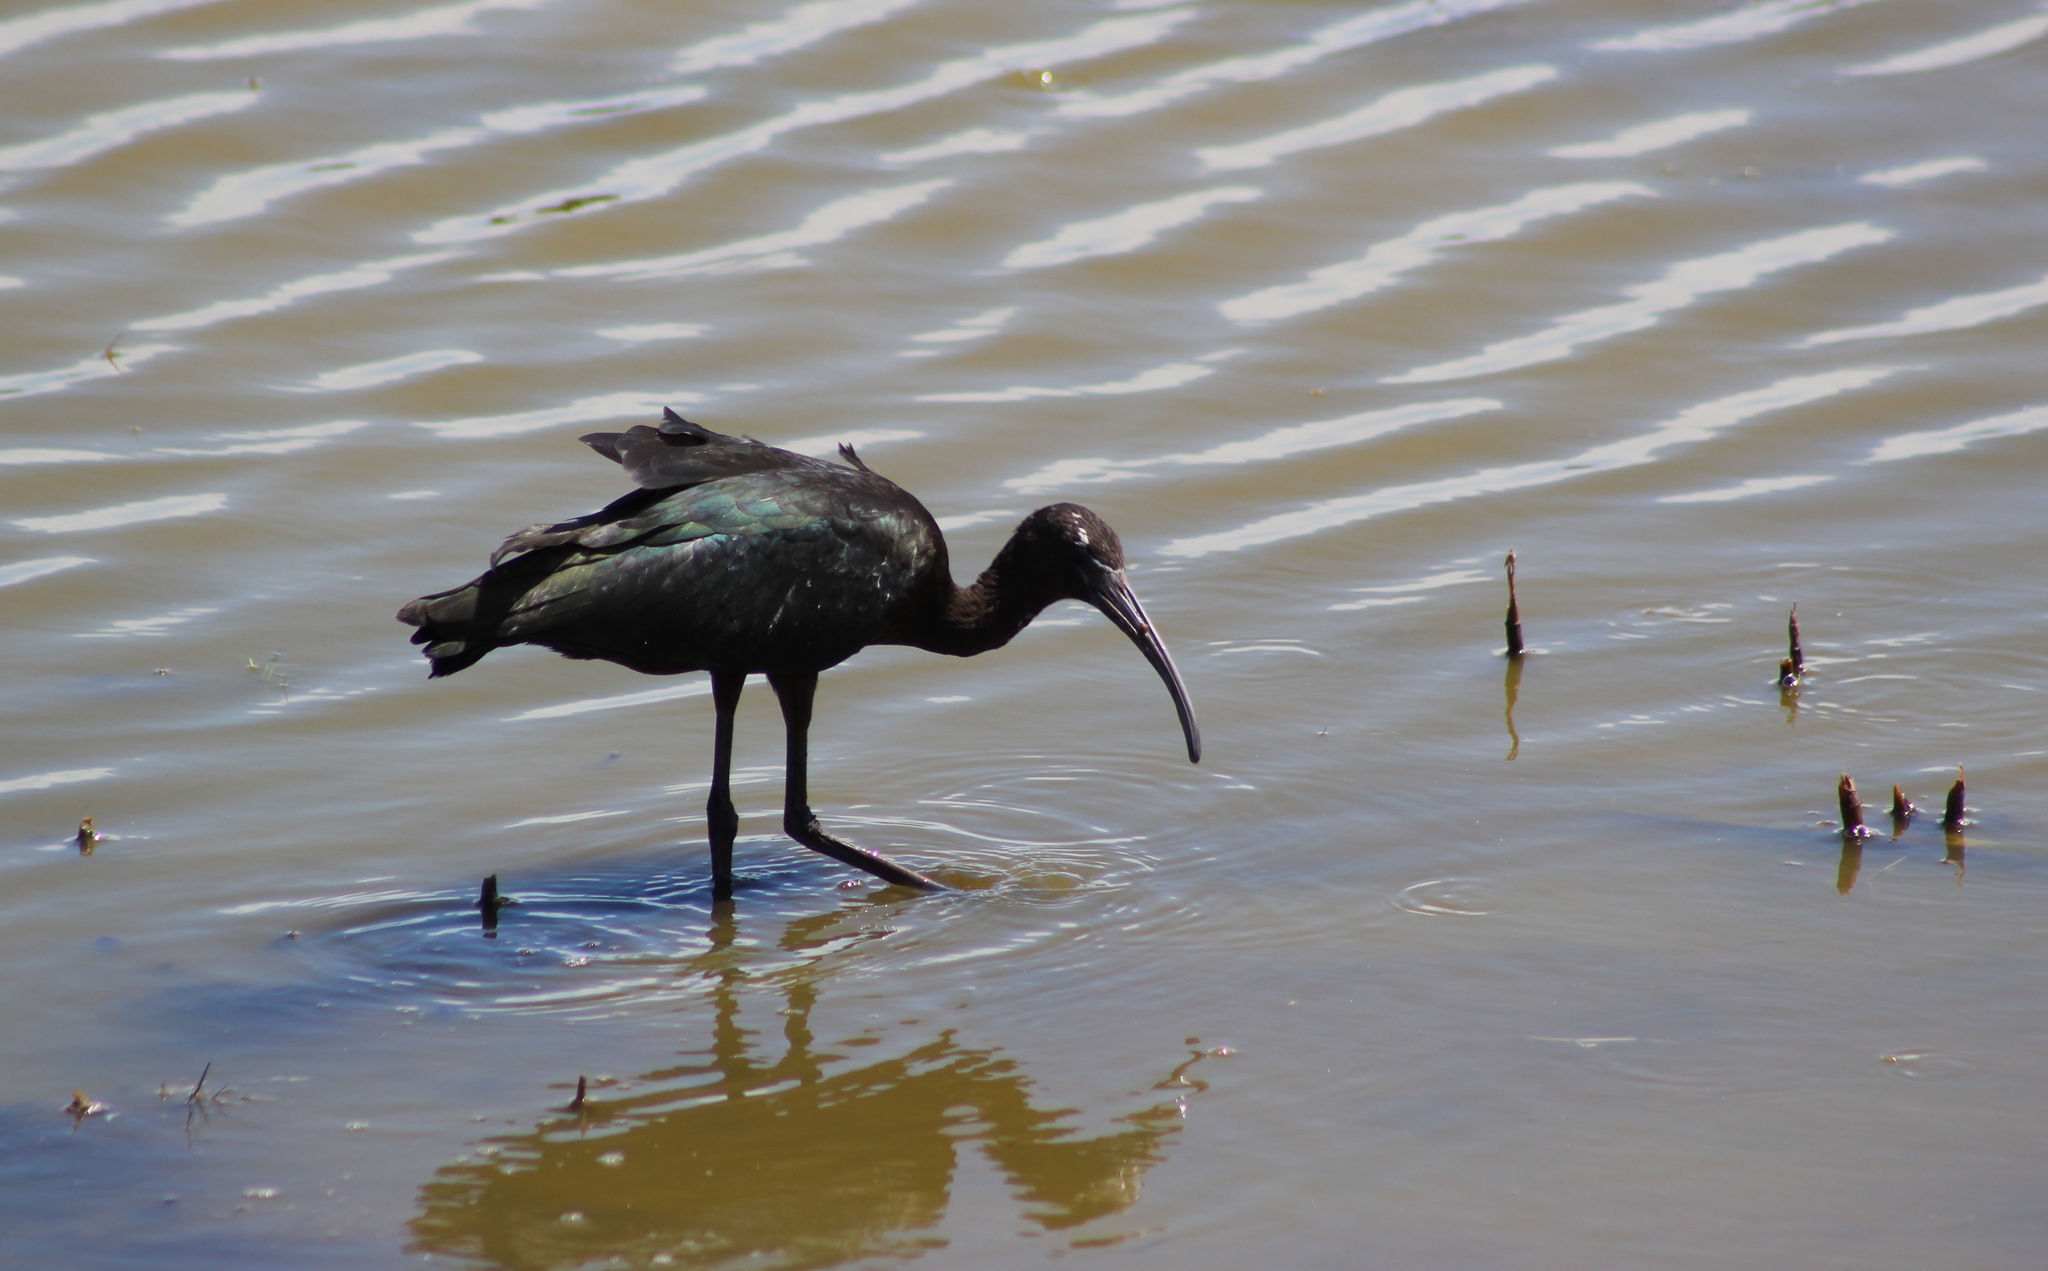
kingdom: Animalia
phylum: Chordata
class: Aves
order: Pelecaniformes
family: Threskiornithidae
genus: Plegadis
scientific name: Plegadis falcinellus
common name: Glossy ibis
